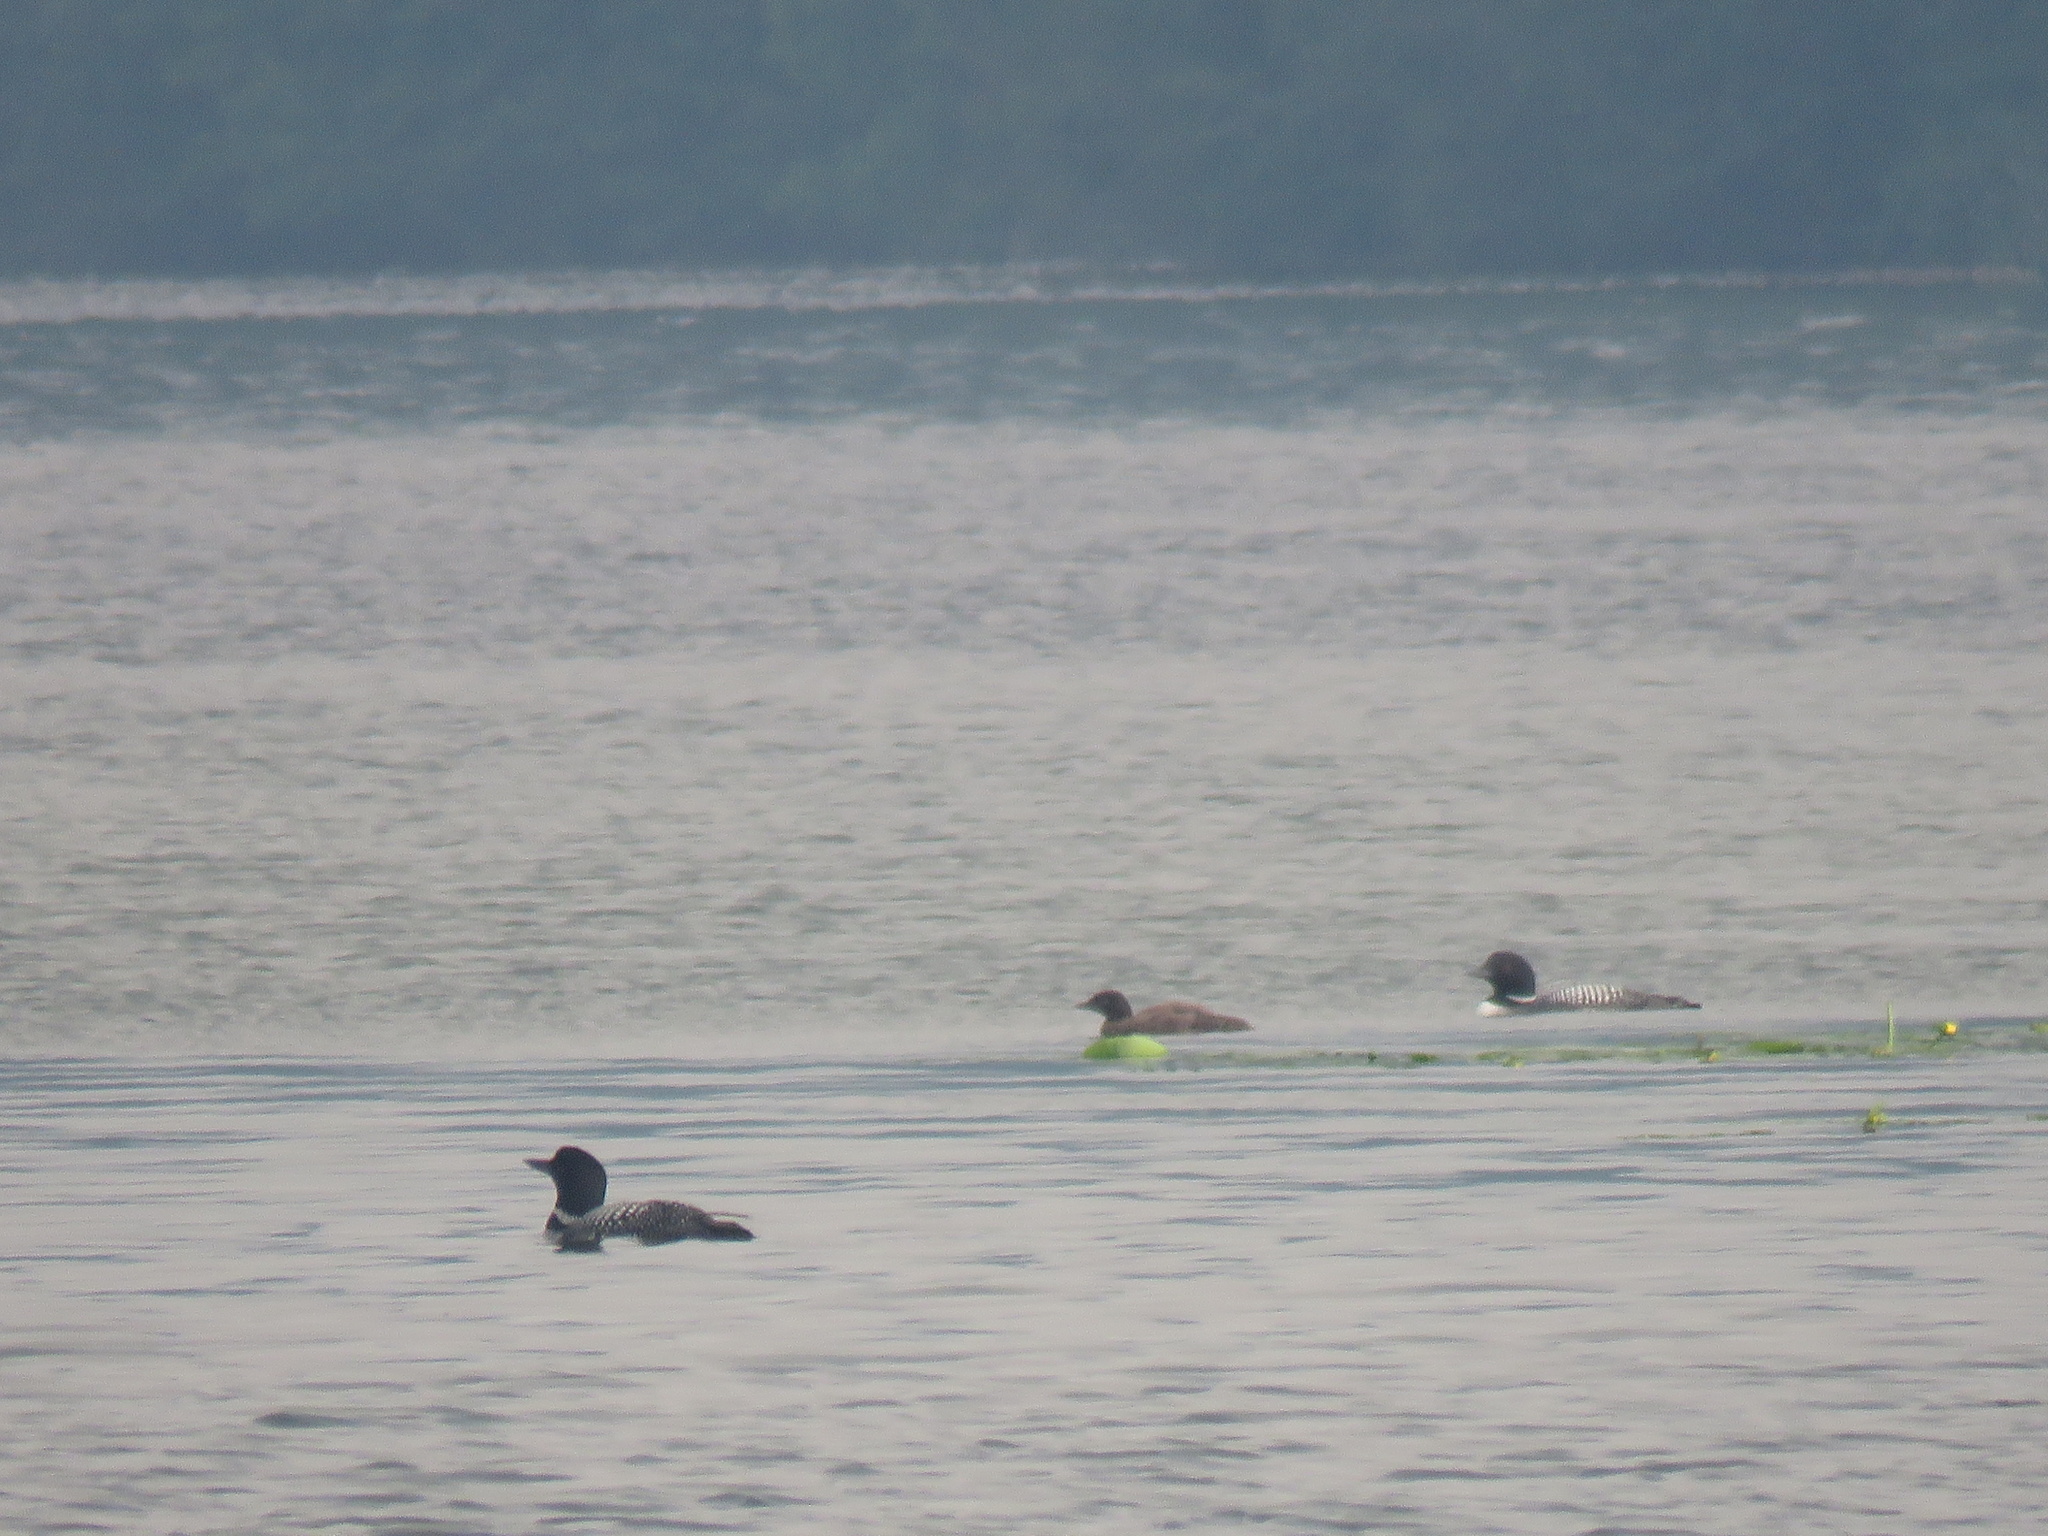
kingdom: Animalia
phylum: Chordata
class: Aves
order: Gaviiformes
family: Gaviidae
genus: Gavia
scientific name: Gavia immer
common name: Common loon
